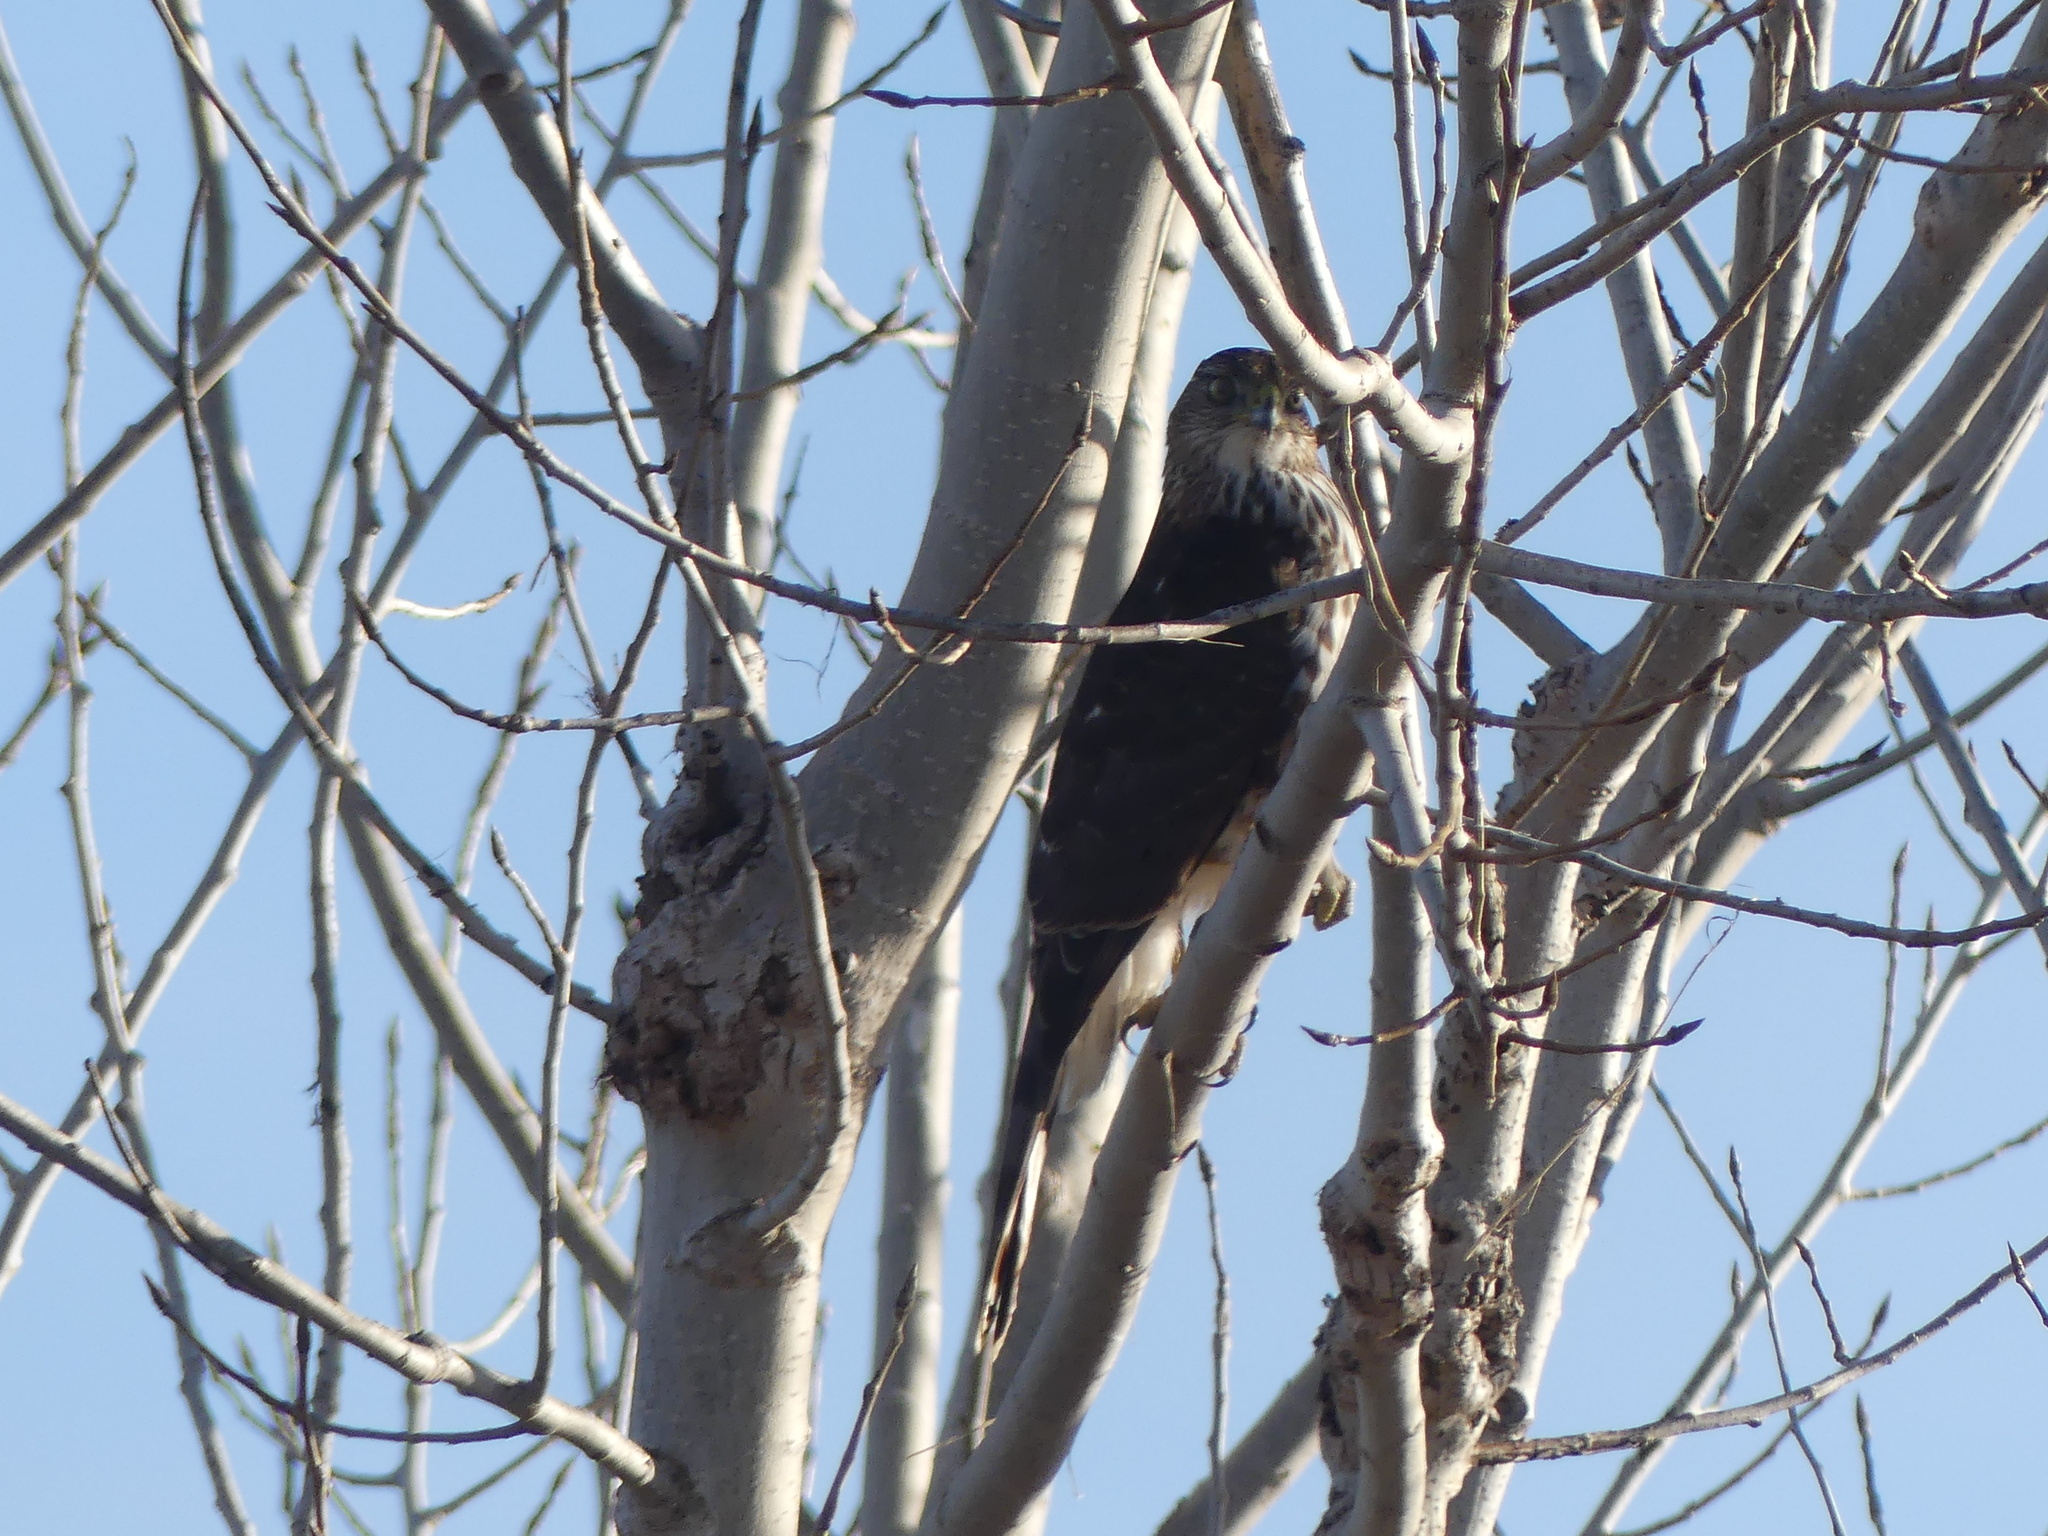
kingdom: Animalia
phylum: Chordata
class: Aves
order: Accipitriformes
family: Accipitridae
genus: Accipiter
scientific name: Accipiter cooperii
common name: Cooper's hawk
